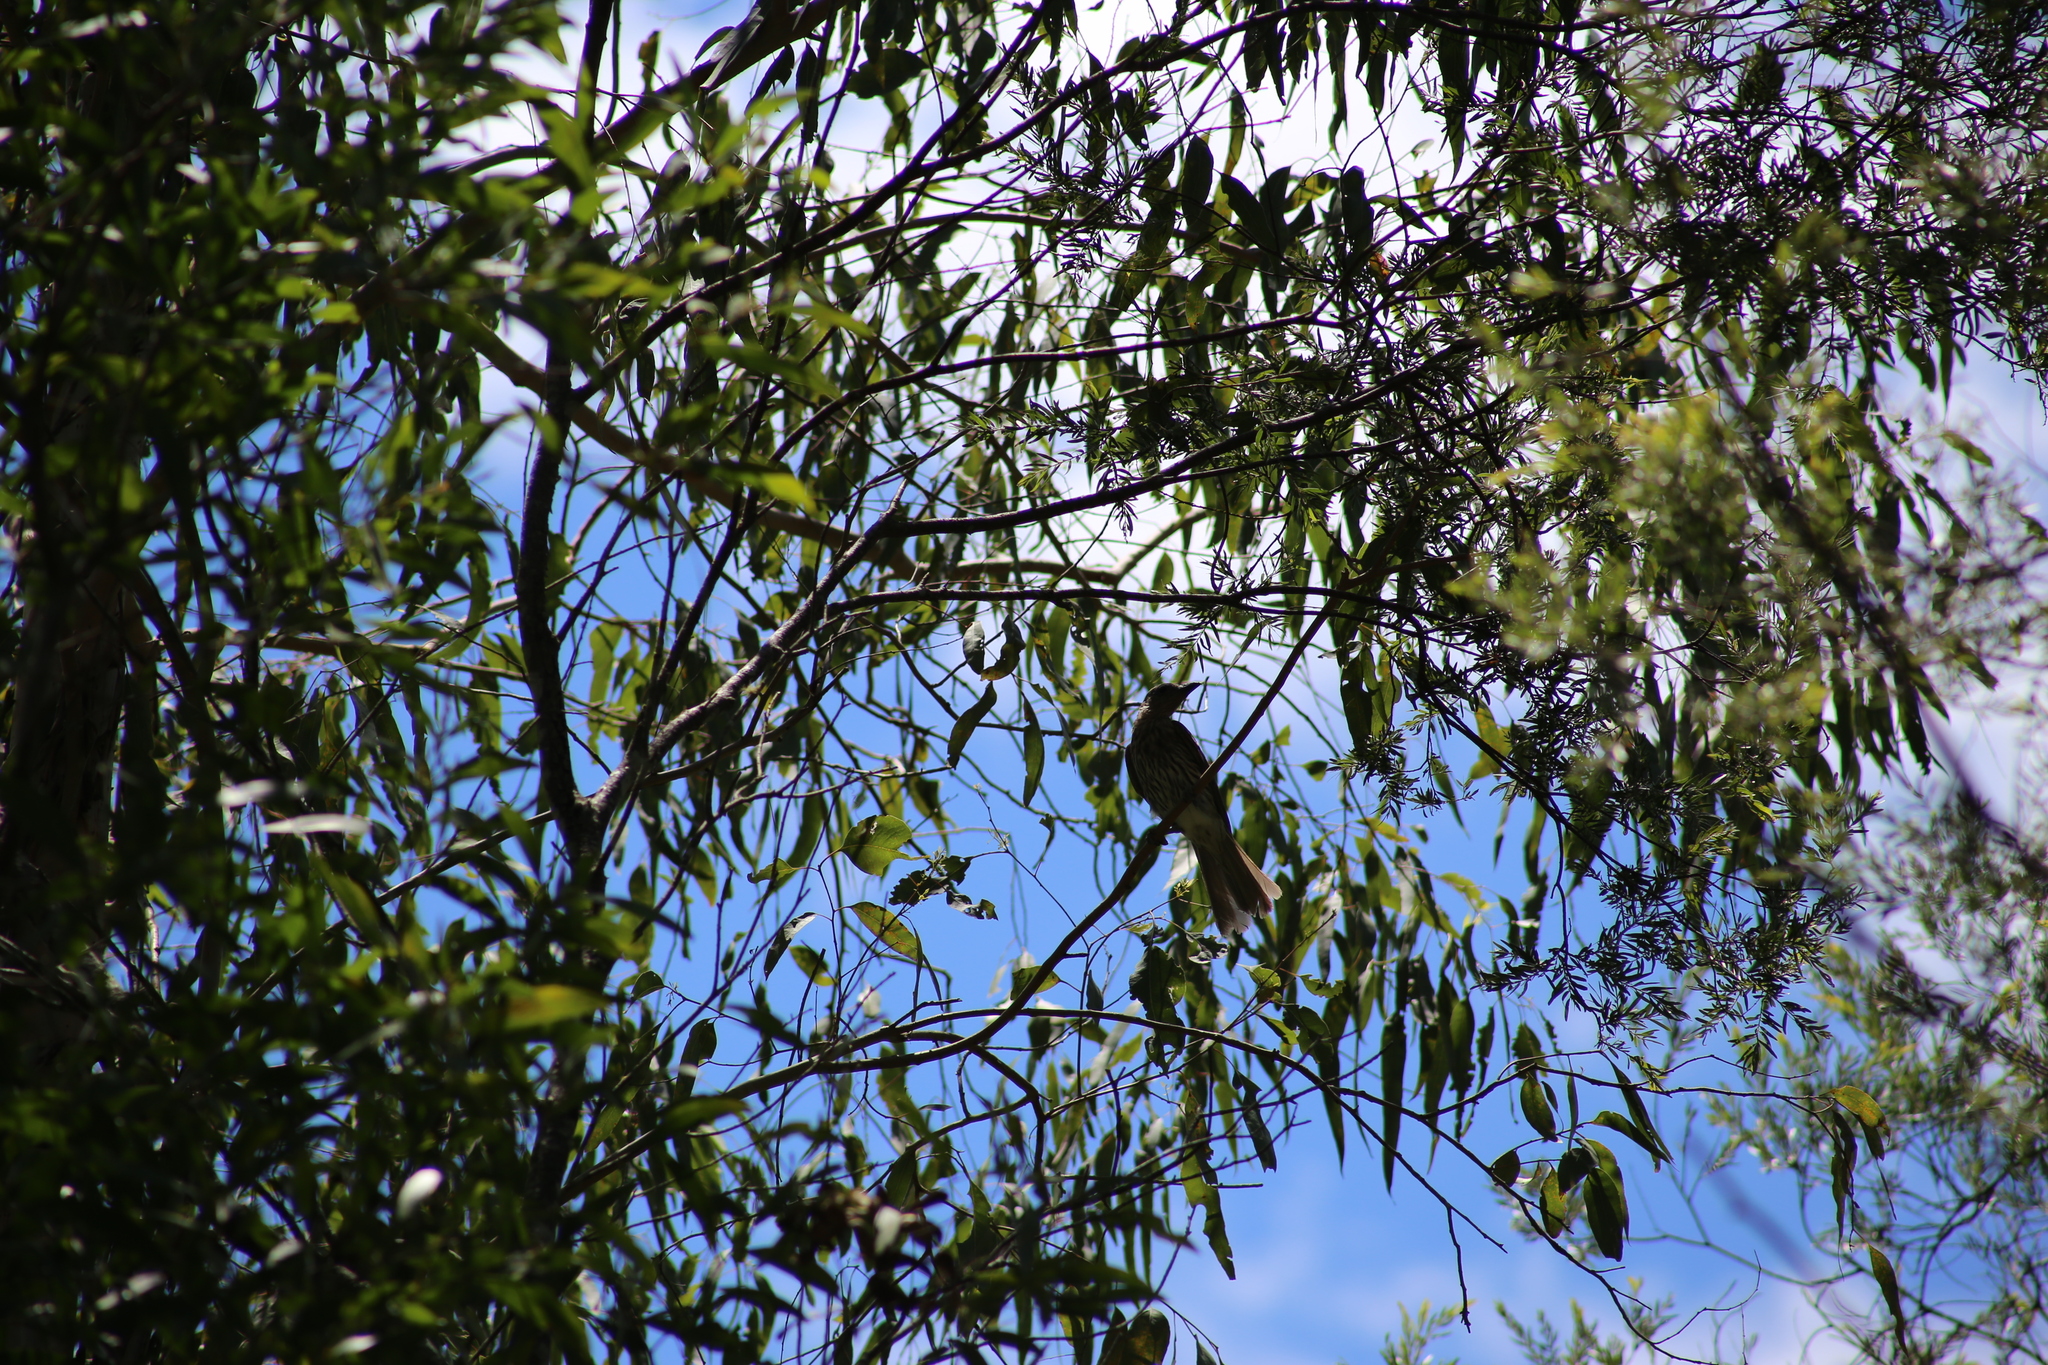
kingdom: Animalia
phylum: Chordata
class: Aves
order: Passeriformes
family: Oriolidae
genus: Sphecotheres
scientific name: Sphecotheres vieilloti
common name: Australasian figbird
